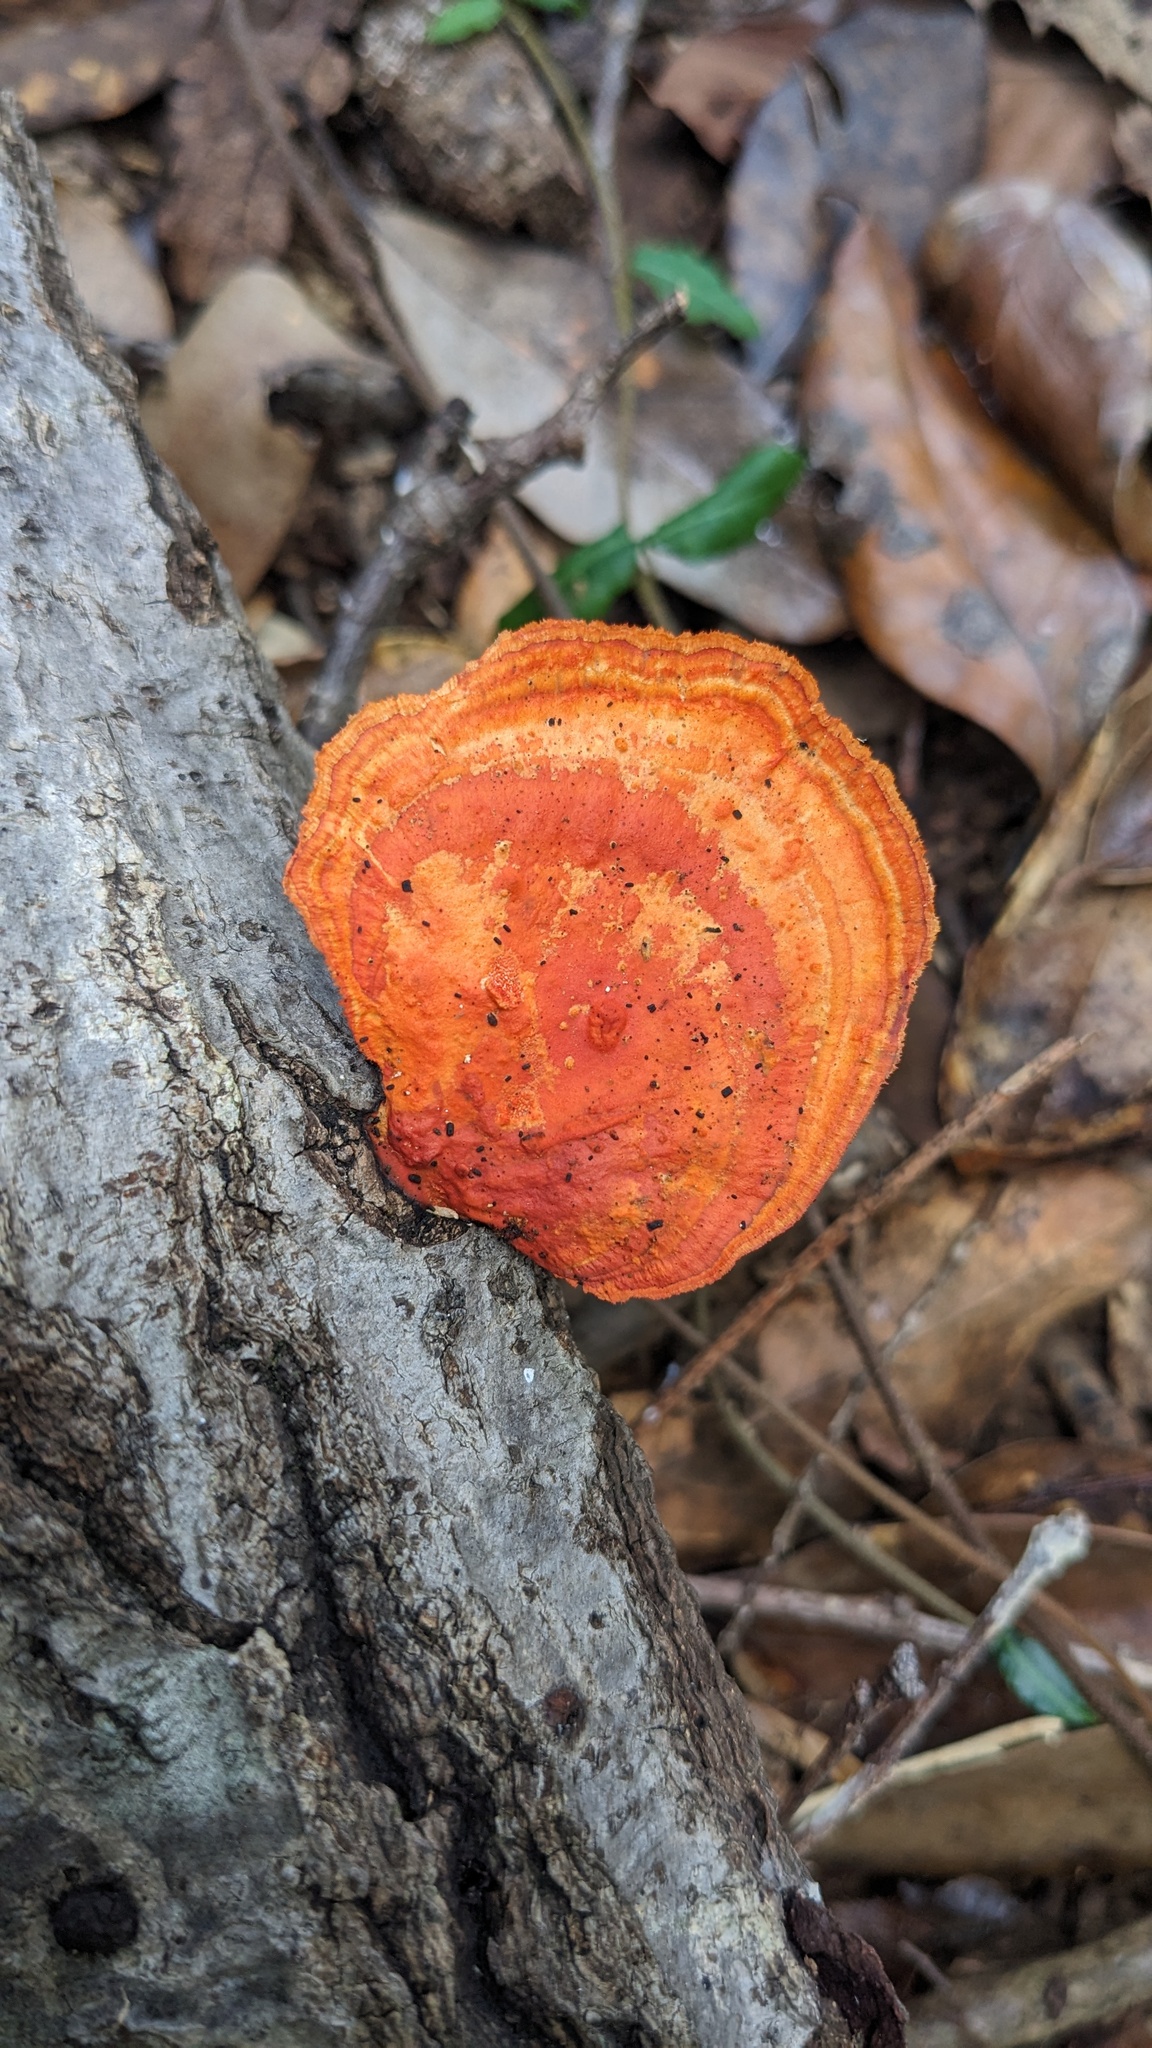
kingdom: Fungi
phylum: Basidiomycota
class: Agaricomycetes
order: Polyporales
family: Polyporaceae
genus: Trametes
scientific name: Trametes coccinea
